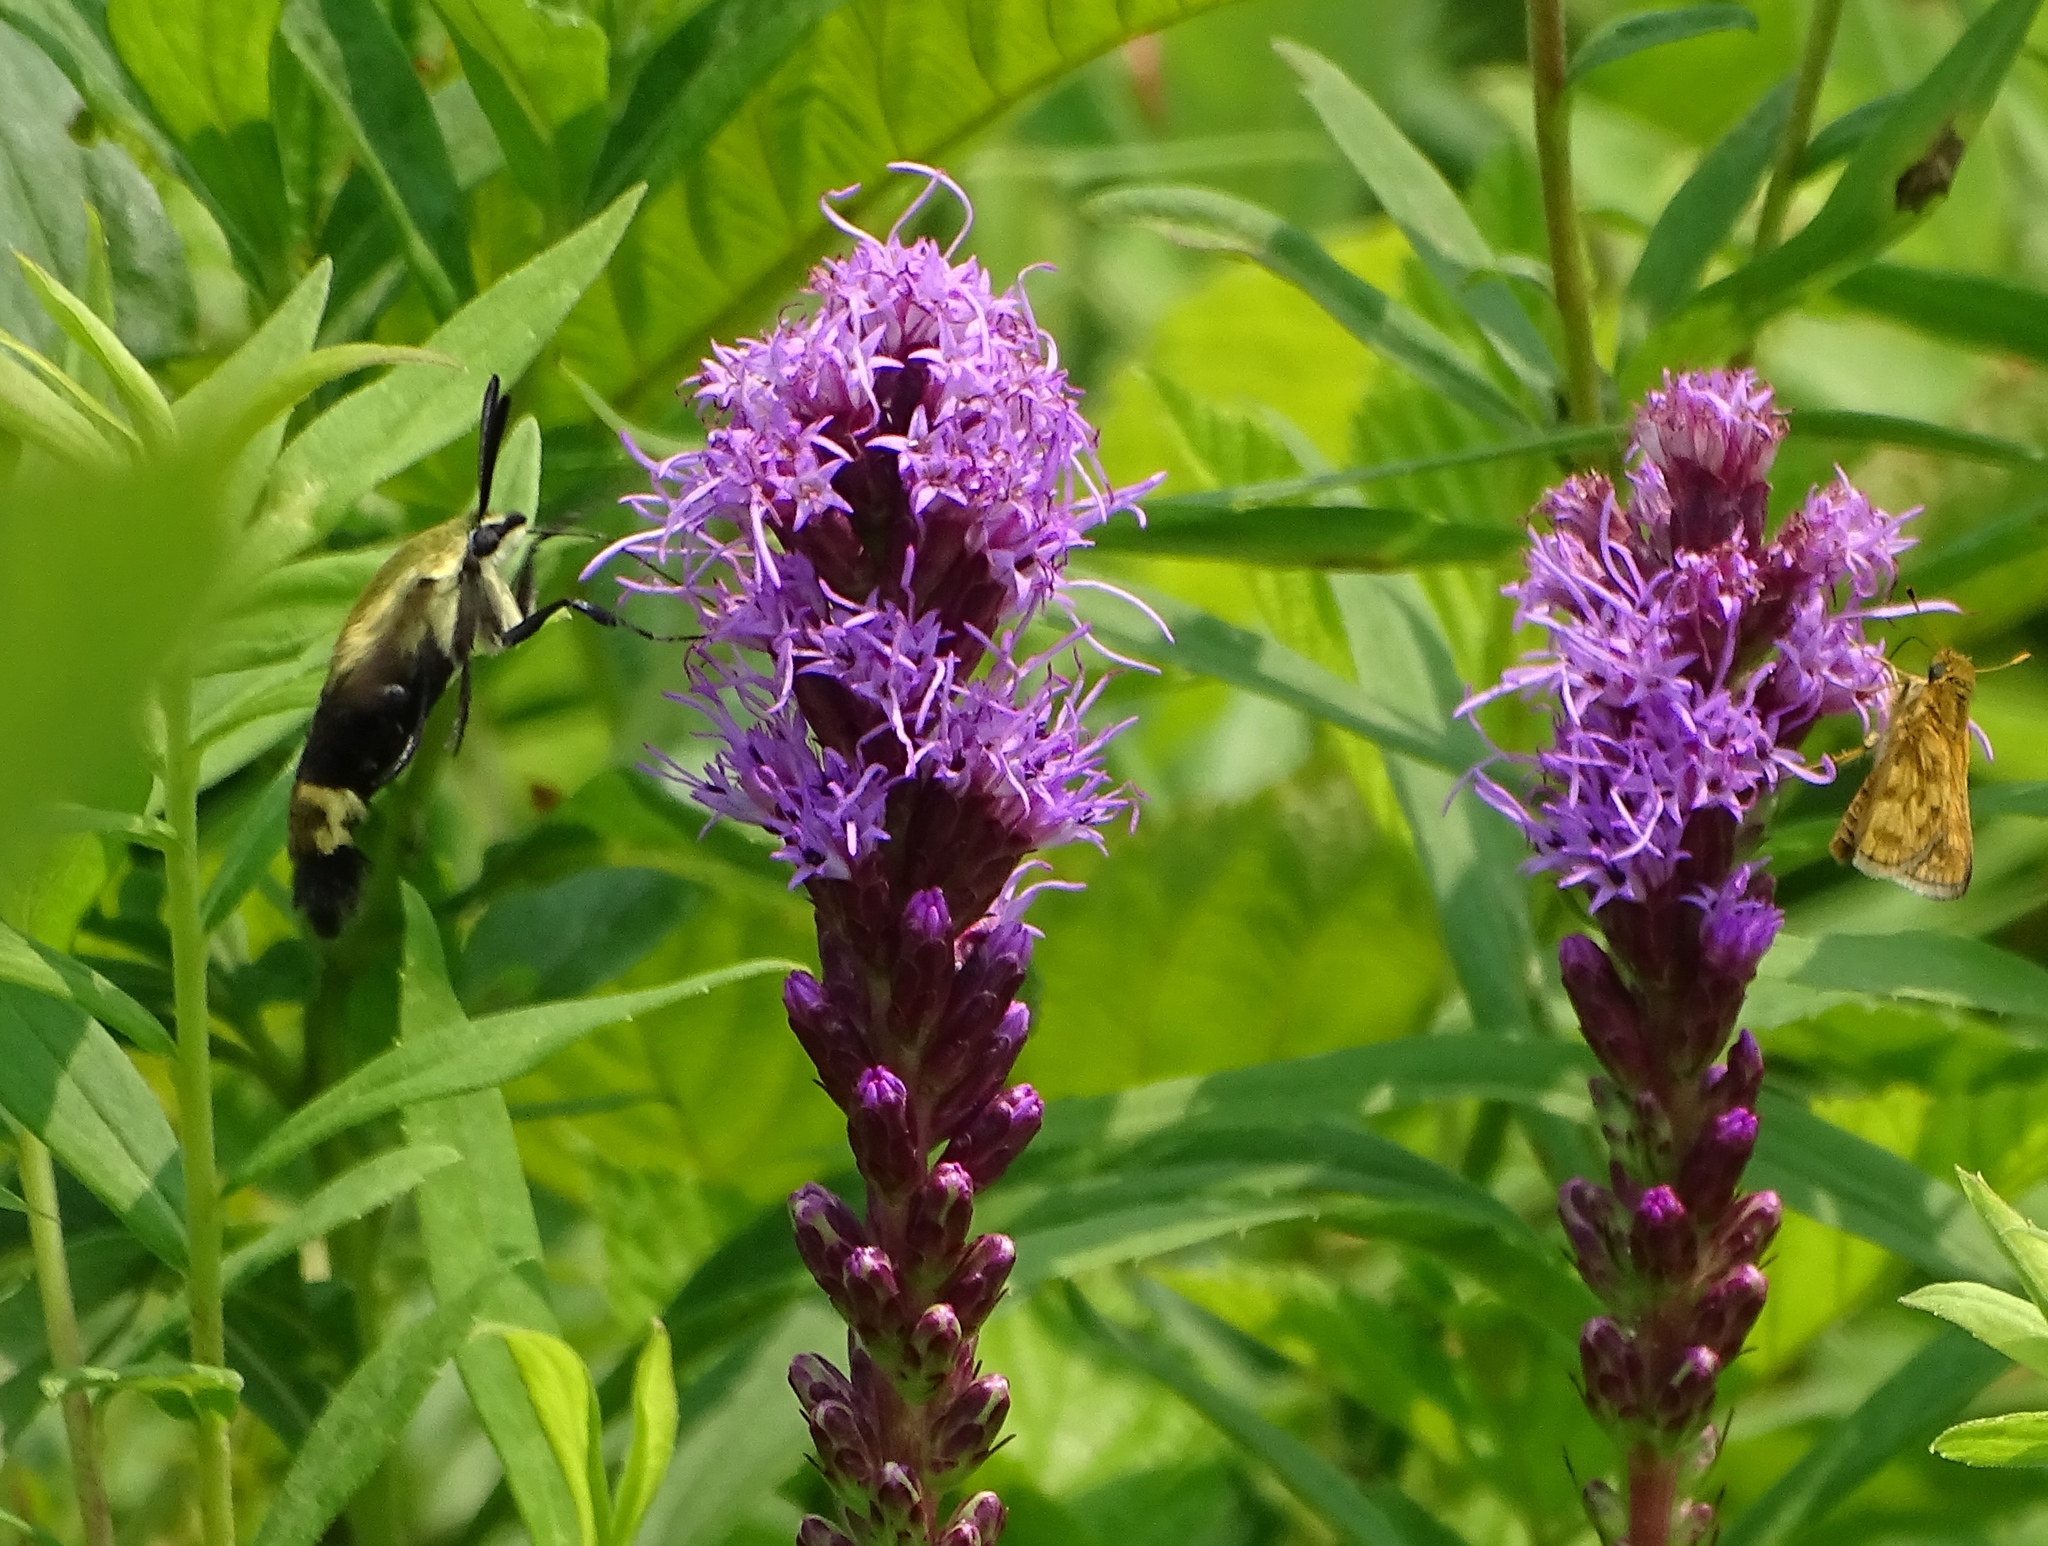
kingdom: Animalia
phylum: Arthropoda
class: Insecta
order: Lepidoptera
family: Sphingidae
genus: Hemaris
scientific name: Hemaris diffinis
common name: Bumblebee moth
